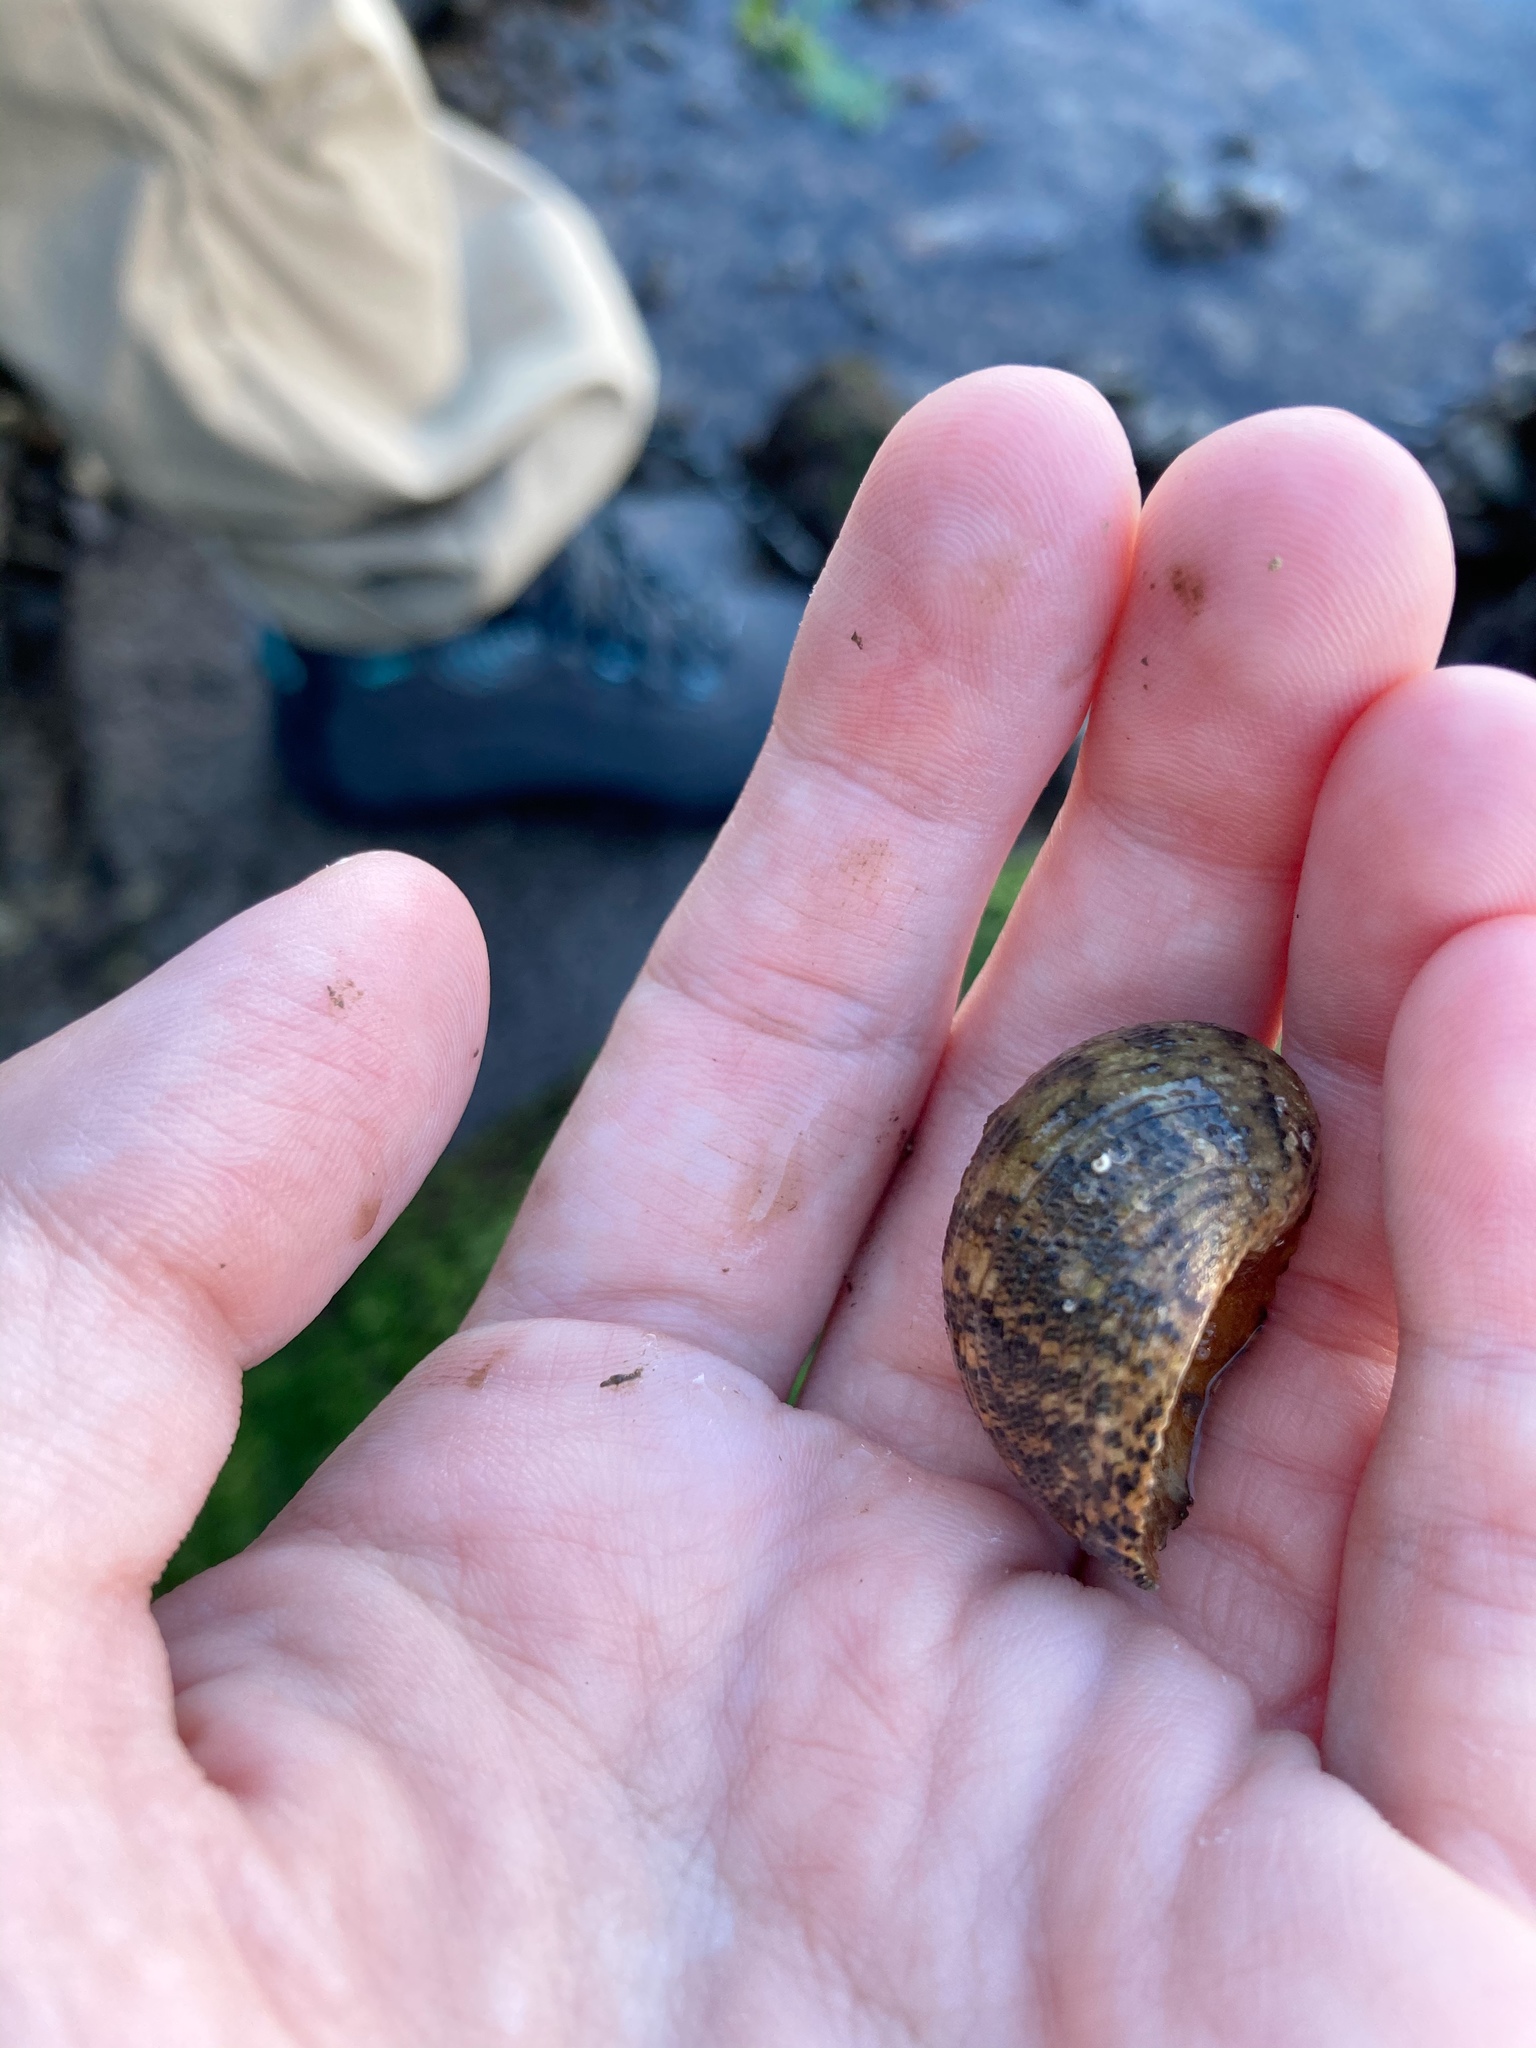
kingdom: Animalia
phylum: Mollusca
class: Gastropoda
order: Cycloneritida
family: Neritidae
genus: Nerita
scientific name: Nerita fulgurans
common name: Antillean nerite
